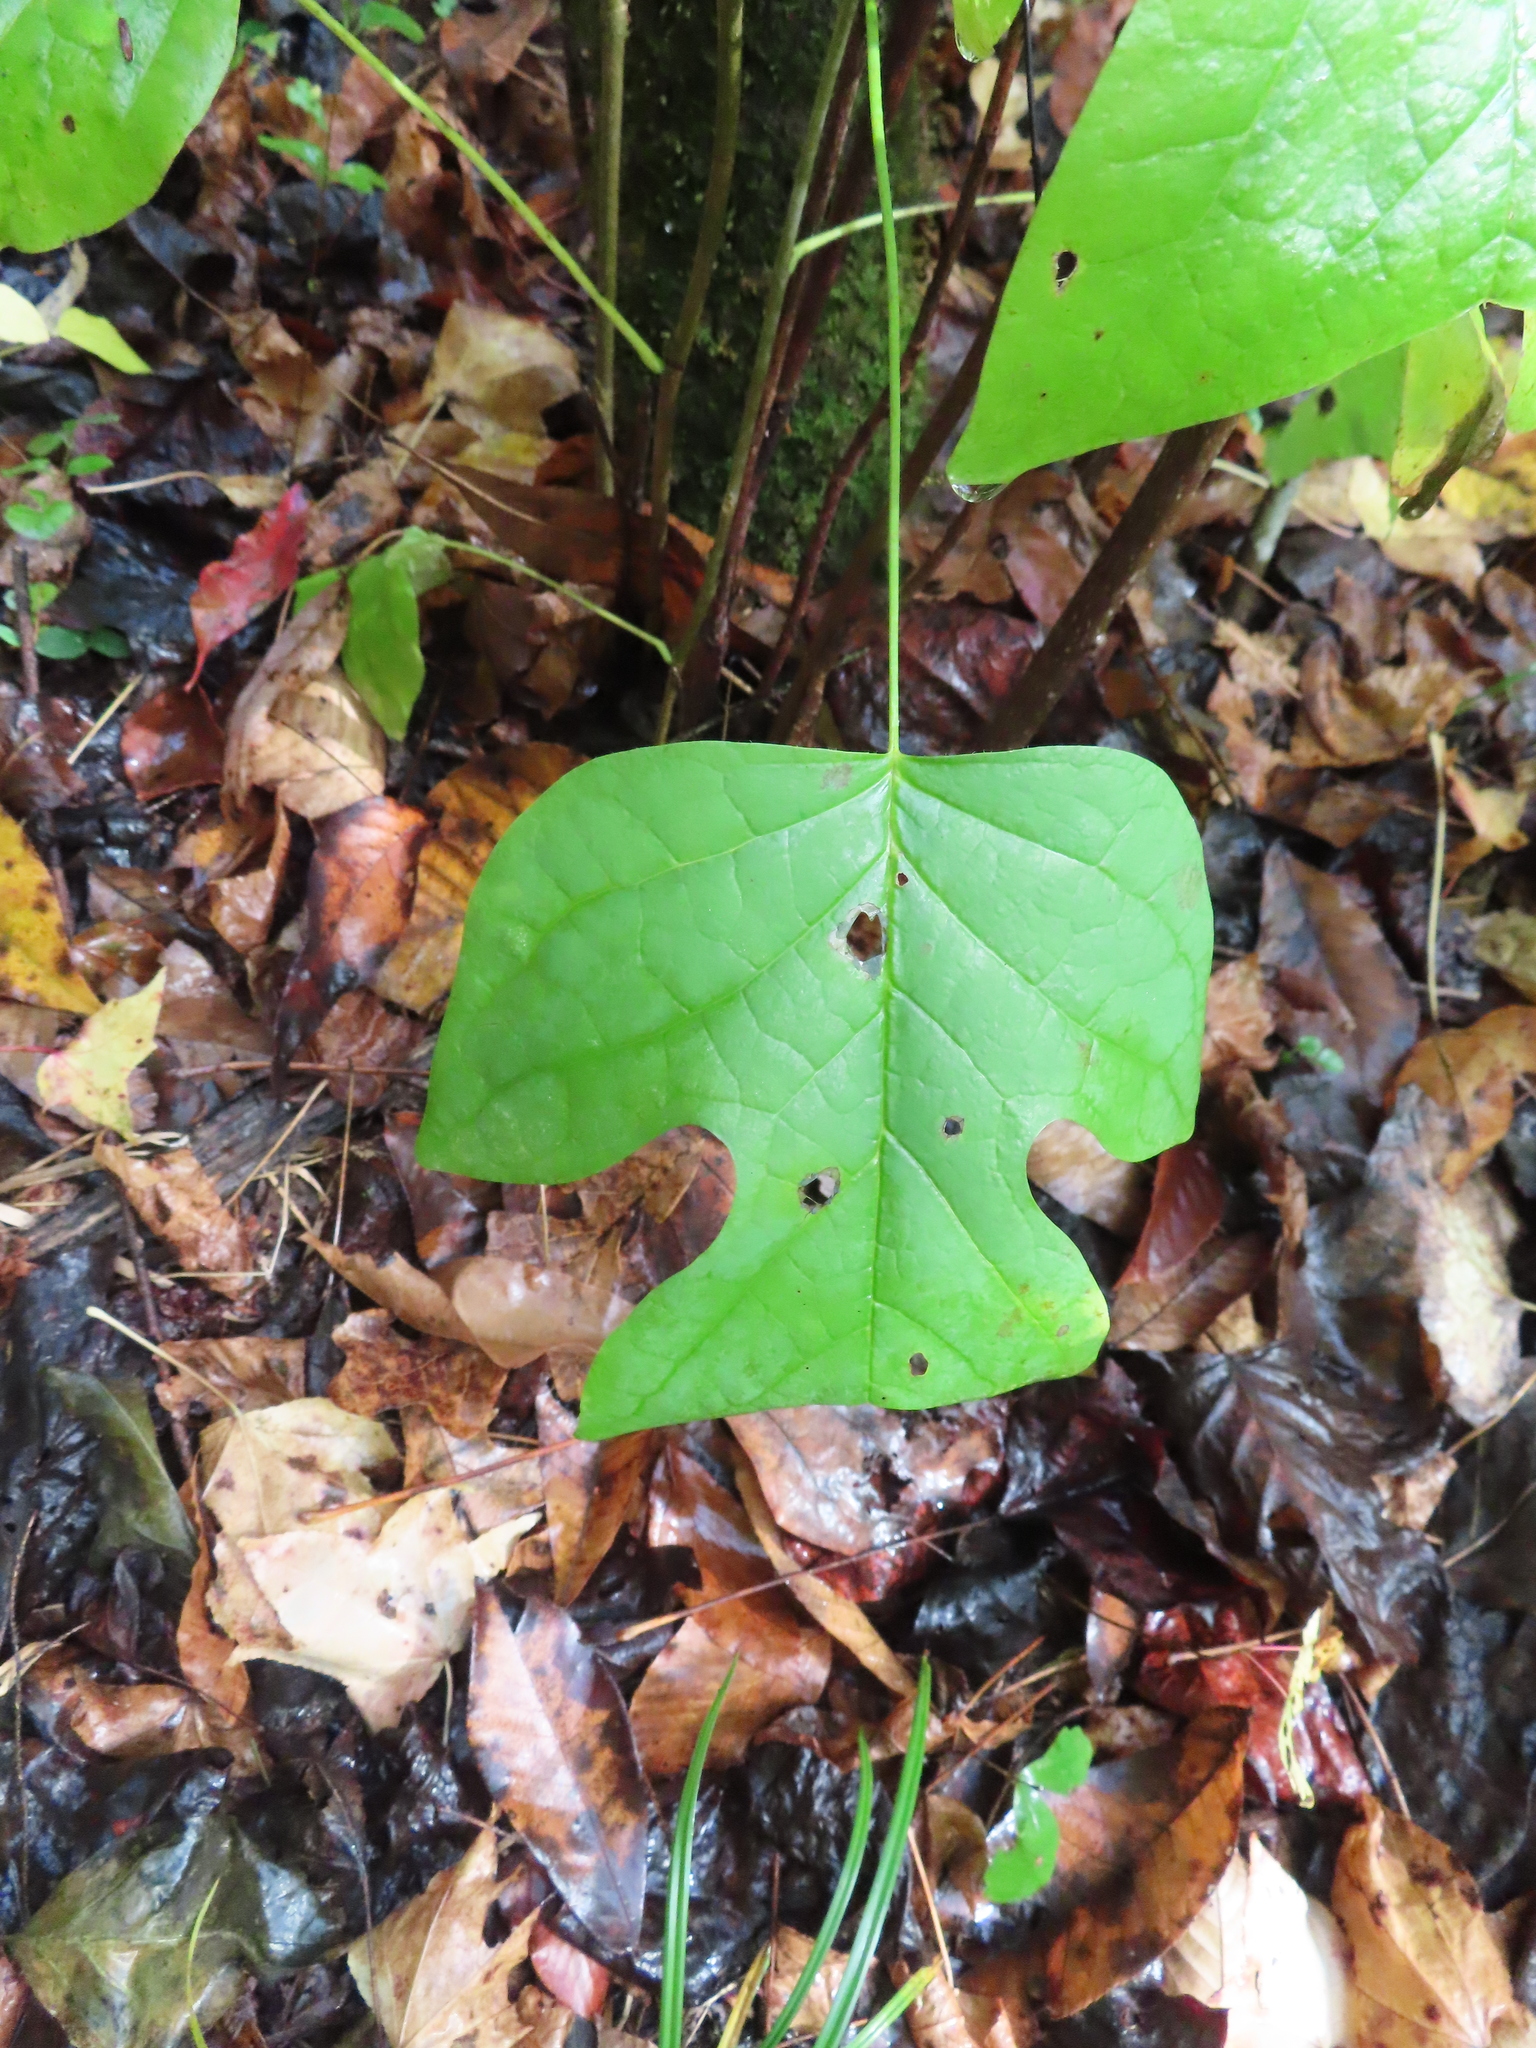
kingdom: Plantae
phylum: Tracheophyta
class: Magnoliopsida
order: Magnoliales
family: Magnoliaceae
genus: Liriodendron
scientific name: Liriodendron tulipifera
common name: Tulip tree
